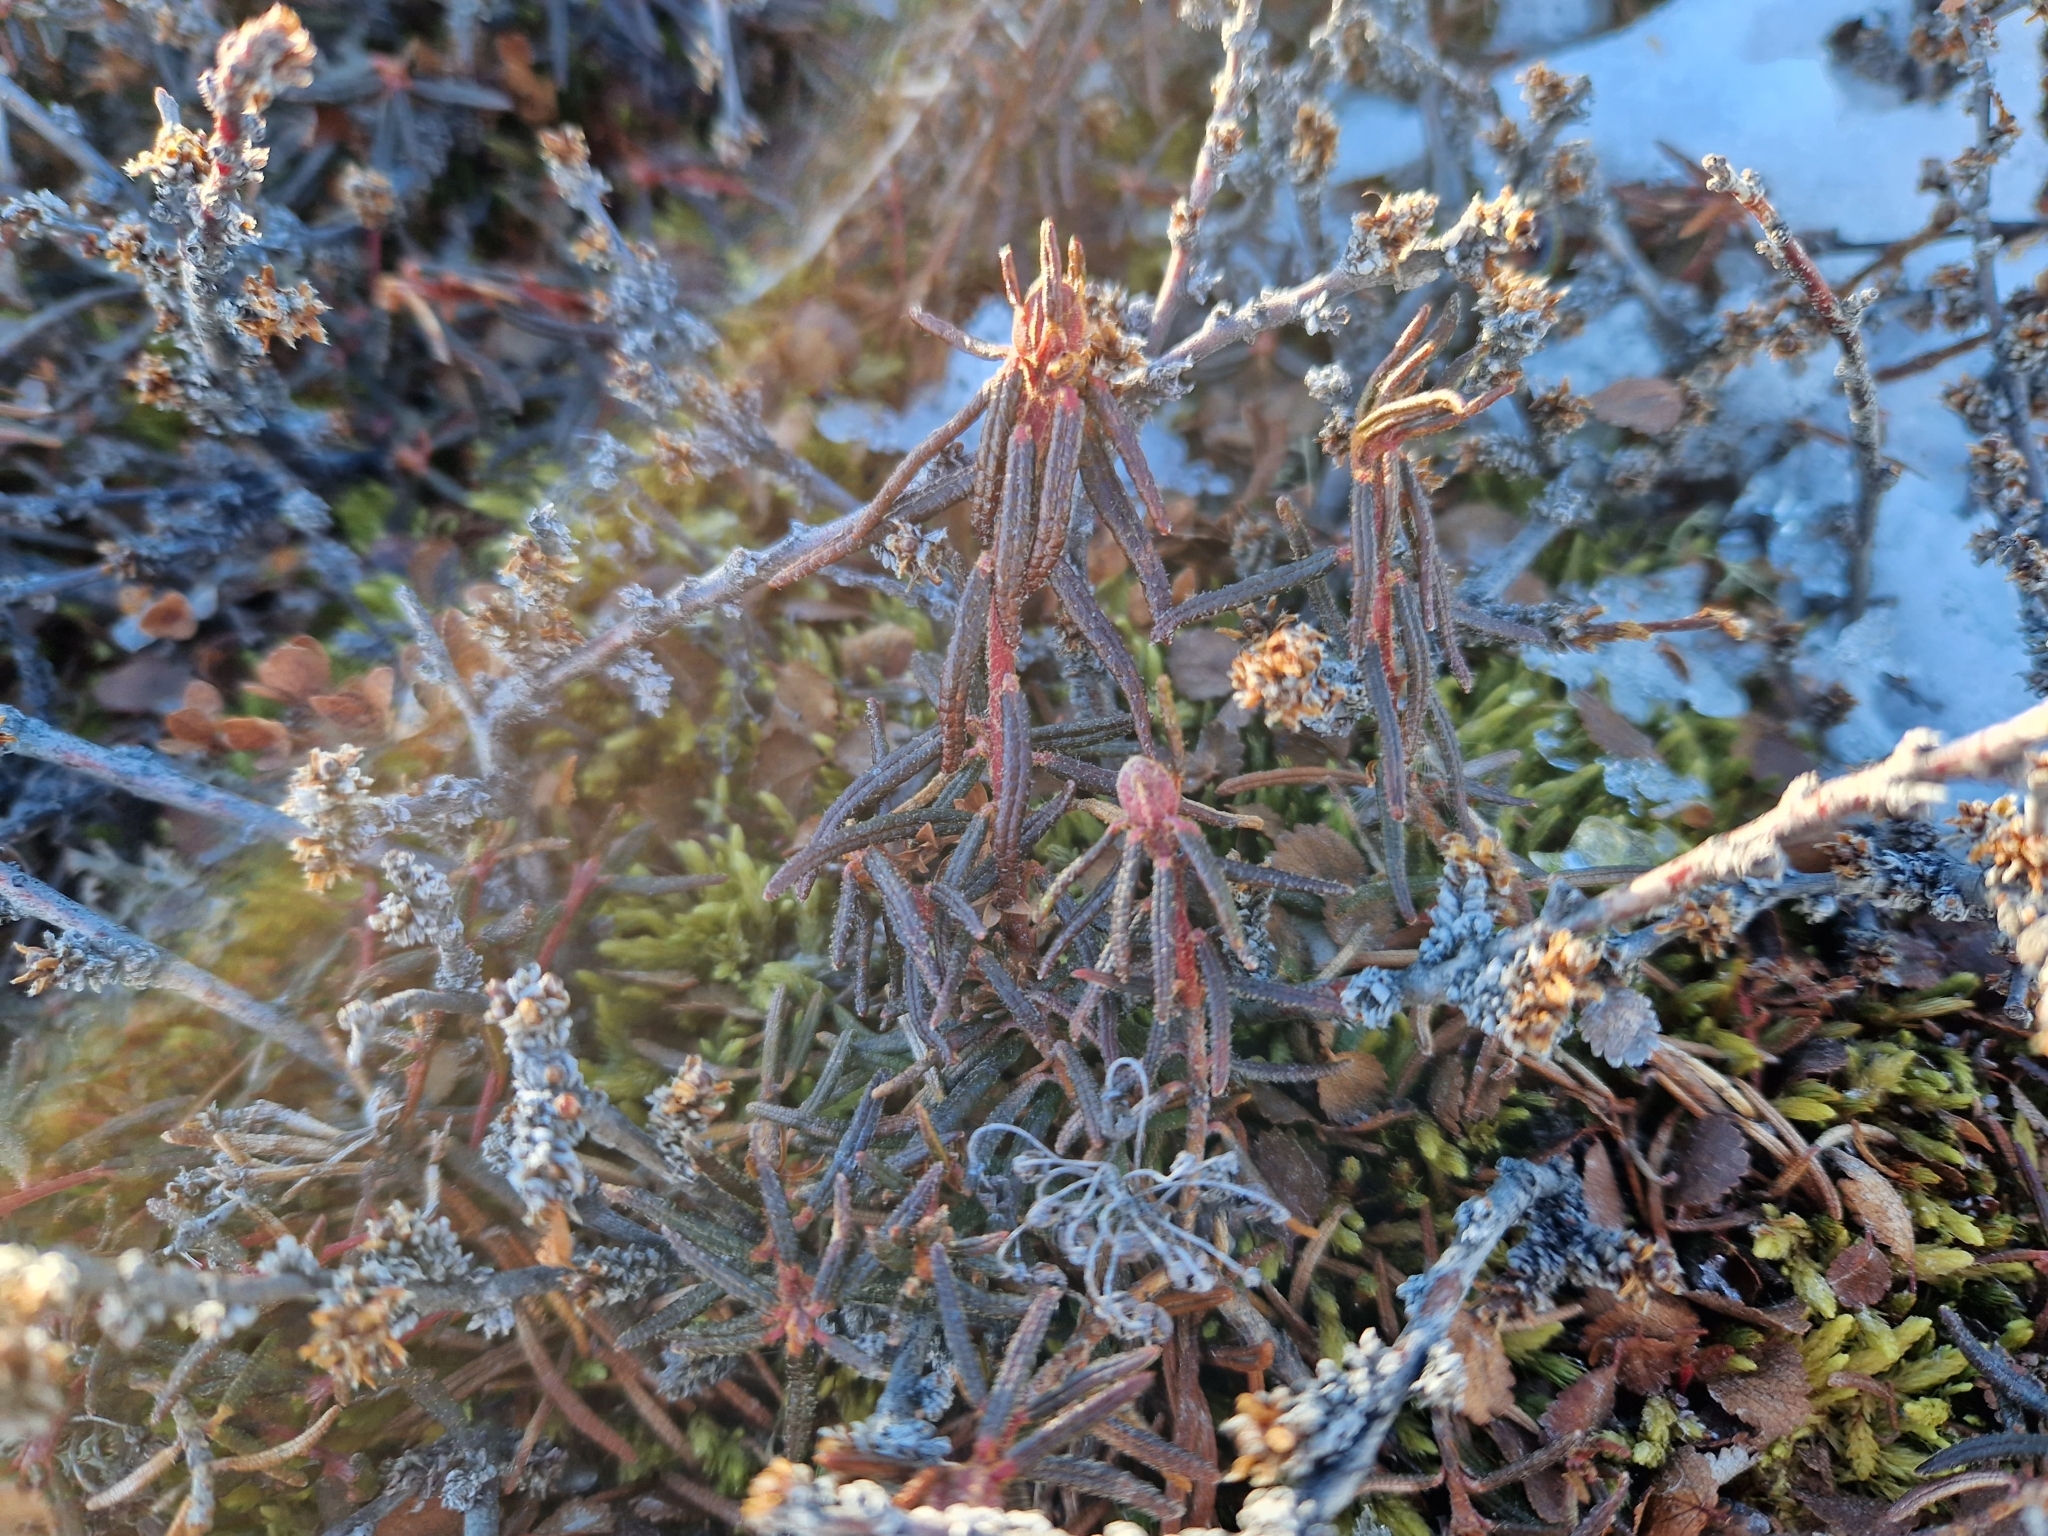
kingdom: Plantae
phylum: Tracheophyta
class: Magnoliopsida
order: Ericales
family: Ericaceae
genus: Rhododendron
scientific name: Rhododendron tomentosum
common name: Marsh labrador tea
